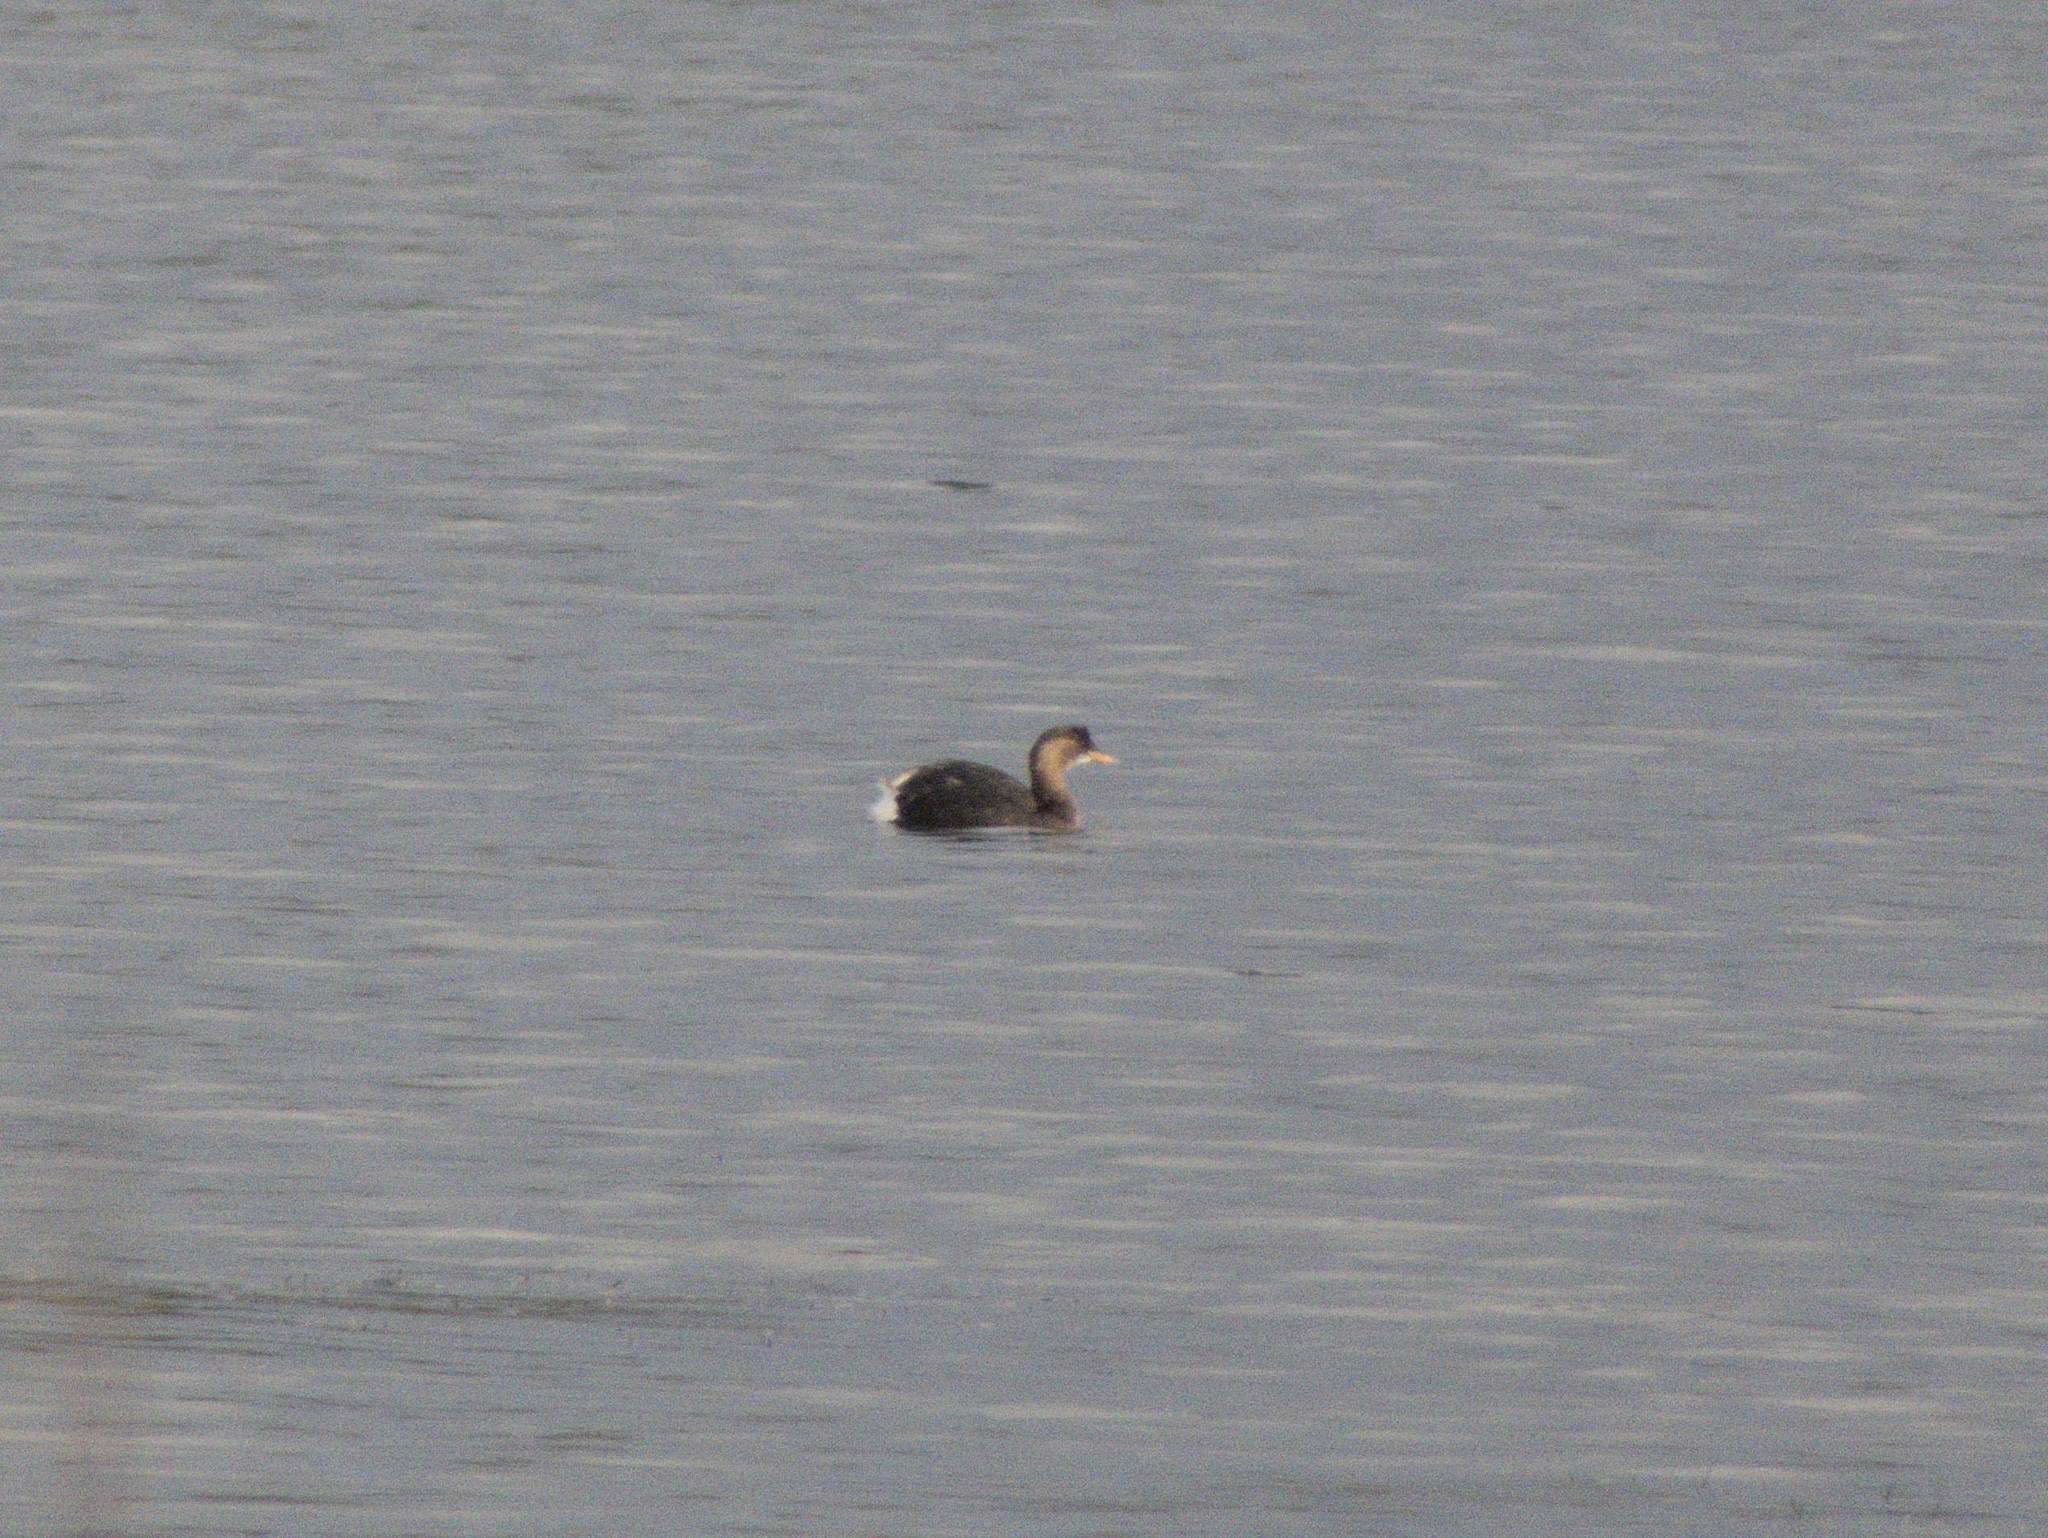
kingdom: Animalia
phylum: Chordata
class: Aves
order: Podicipediformes
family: Podicipedidae
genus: Tachybaptus
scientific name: Tachybaptus ruficollis
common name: Little grebe
